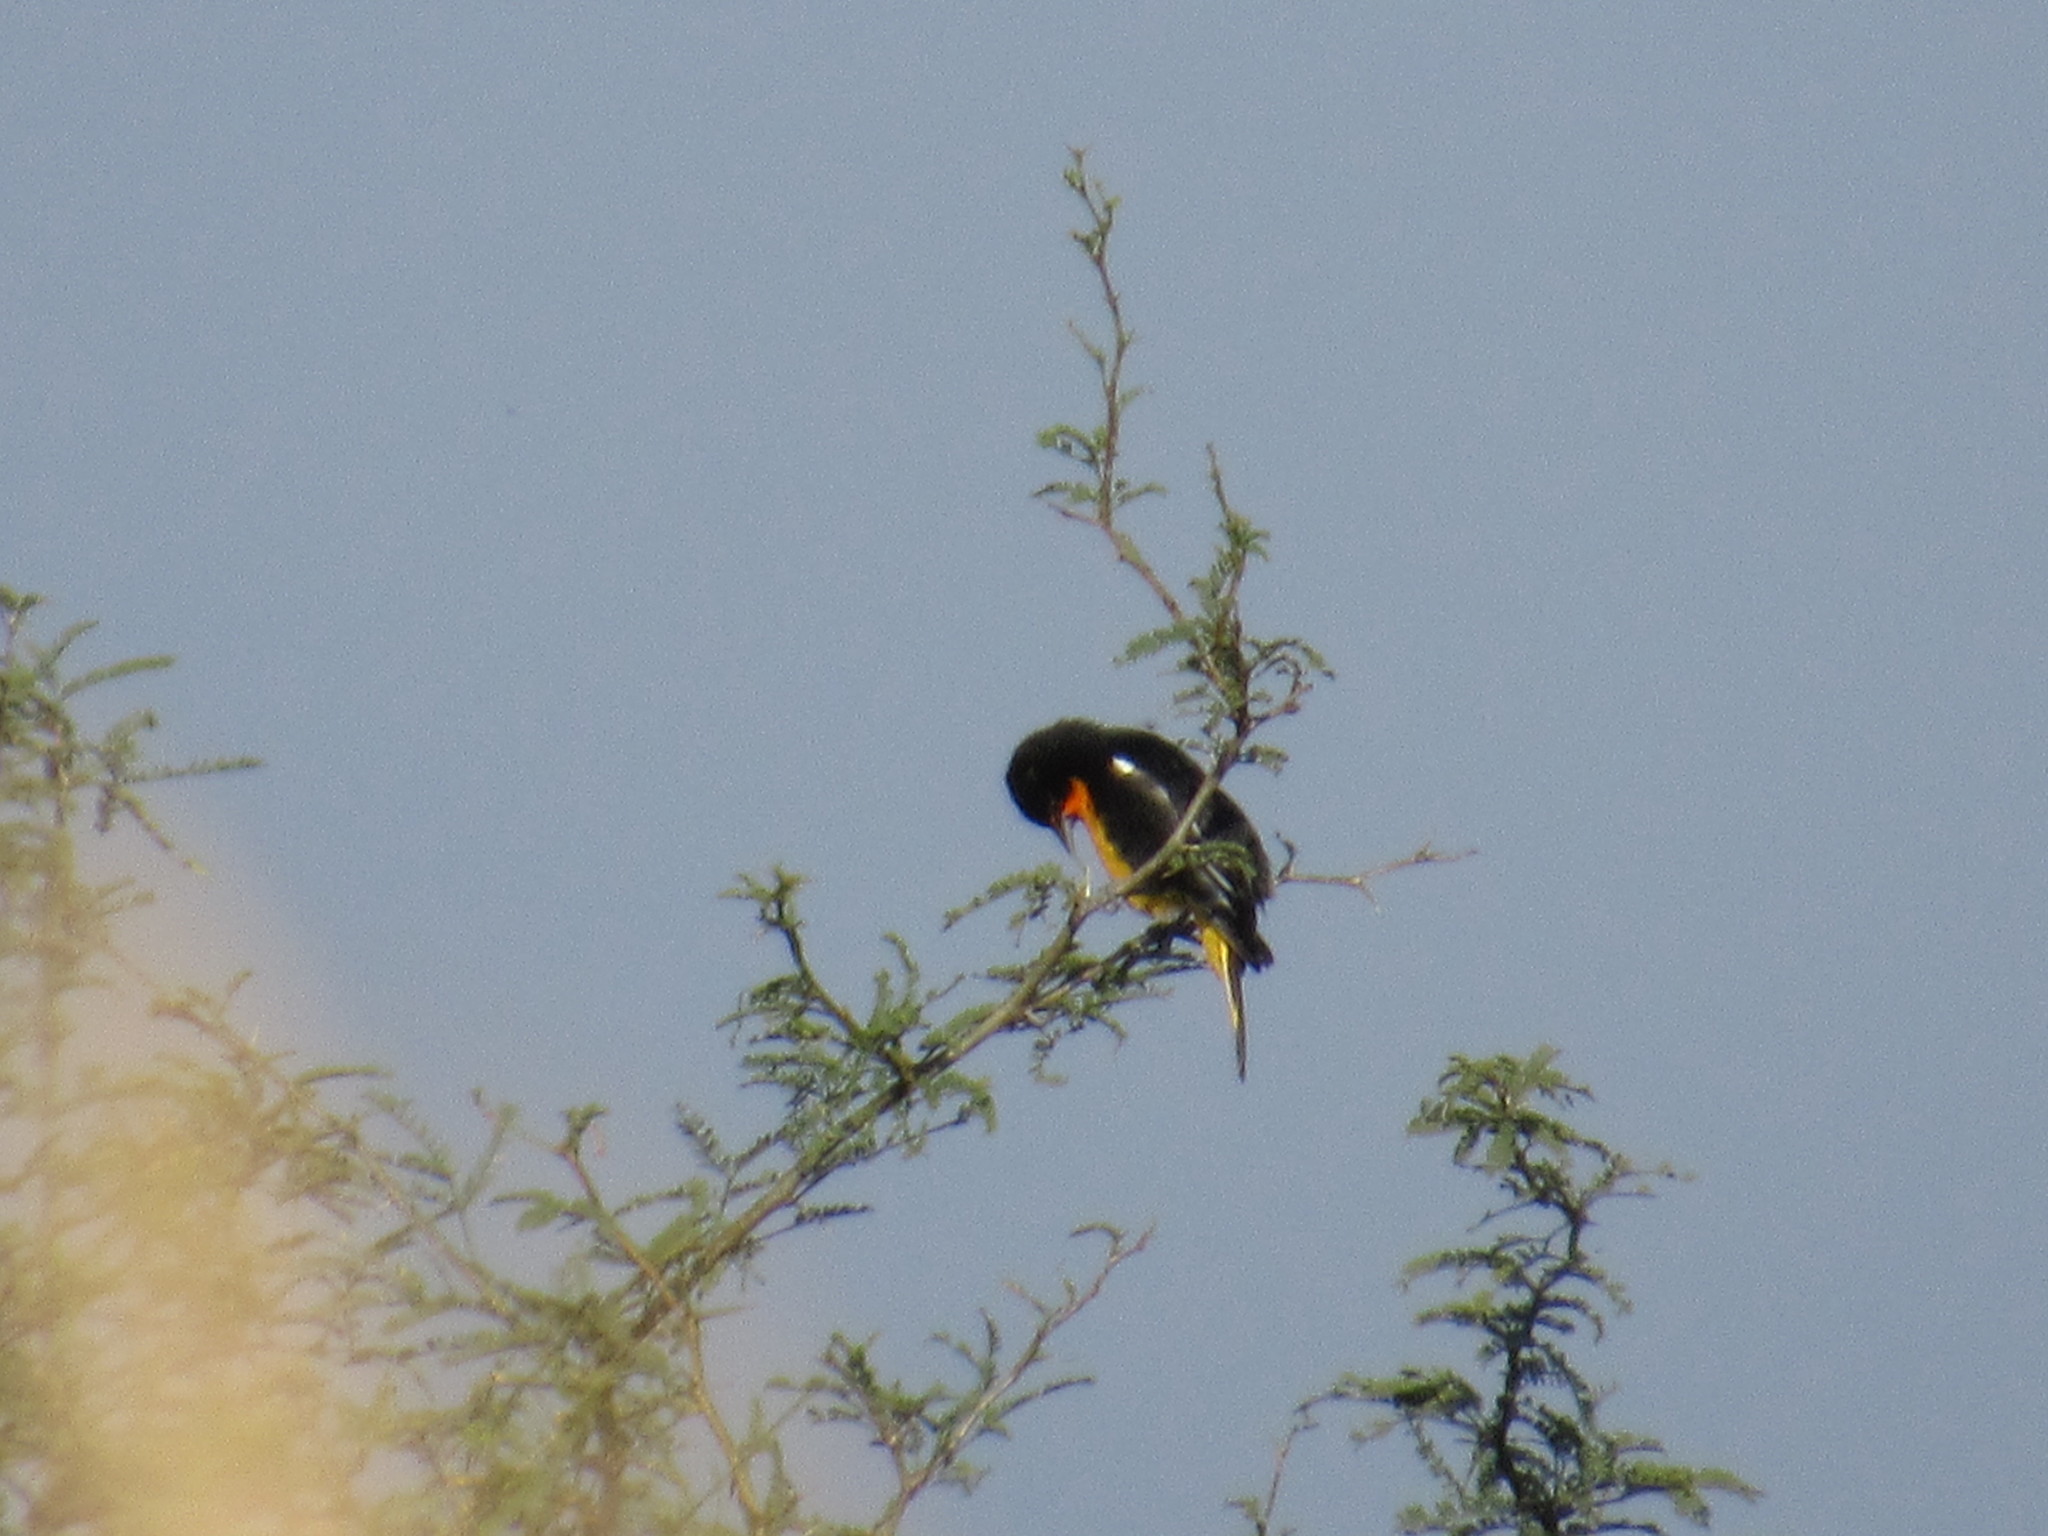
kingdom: Animalia
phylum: Chordata
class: Aves
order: Passeriformes
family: Icteridae
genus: Icterus
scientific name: Icterus abeillei
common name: Black-backed oriole
